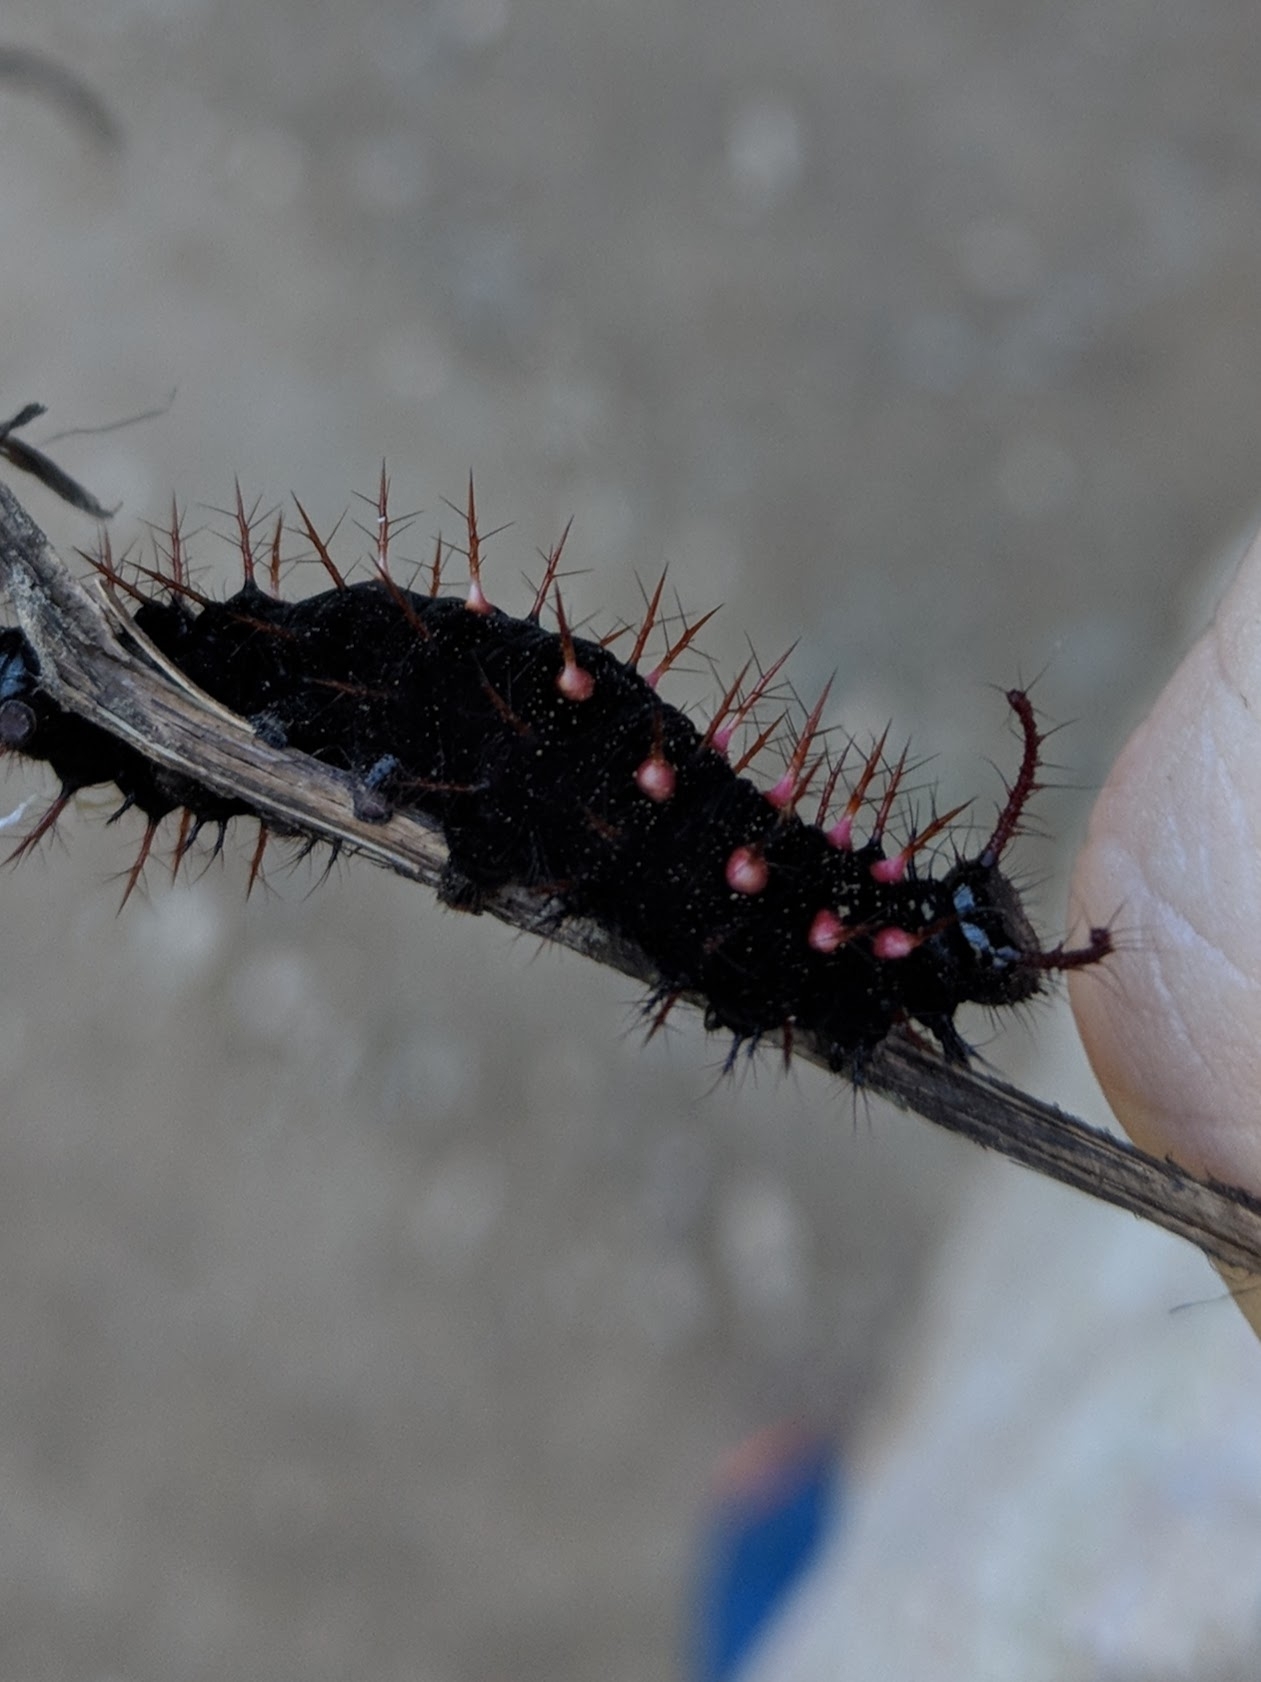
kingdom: Animalia
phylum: Arthropoda
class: Insecta
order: Lepidoptera
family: Nymphalidae
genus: Siproeta
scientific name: Siproeta stelenes
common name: Malachite
